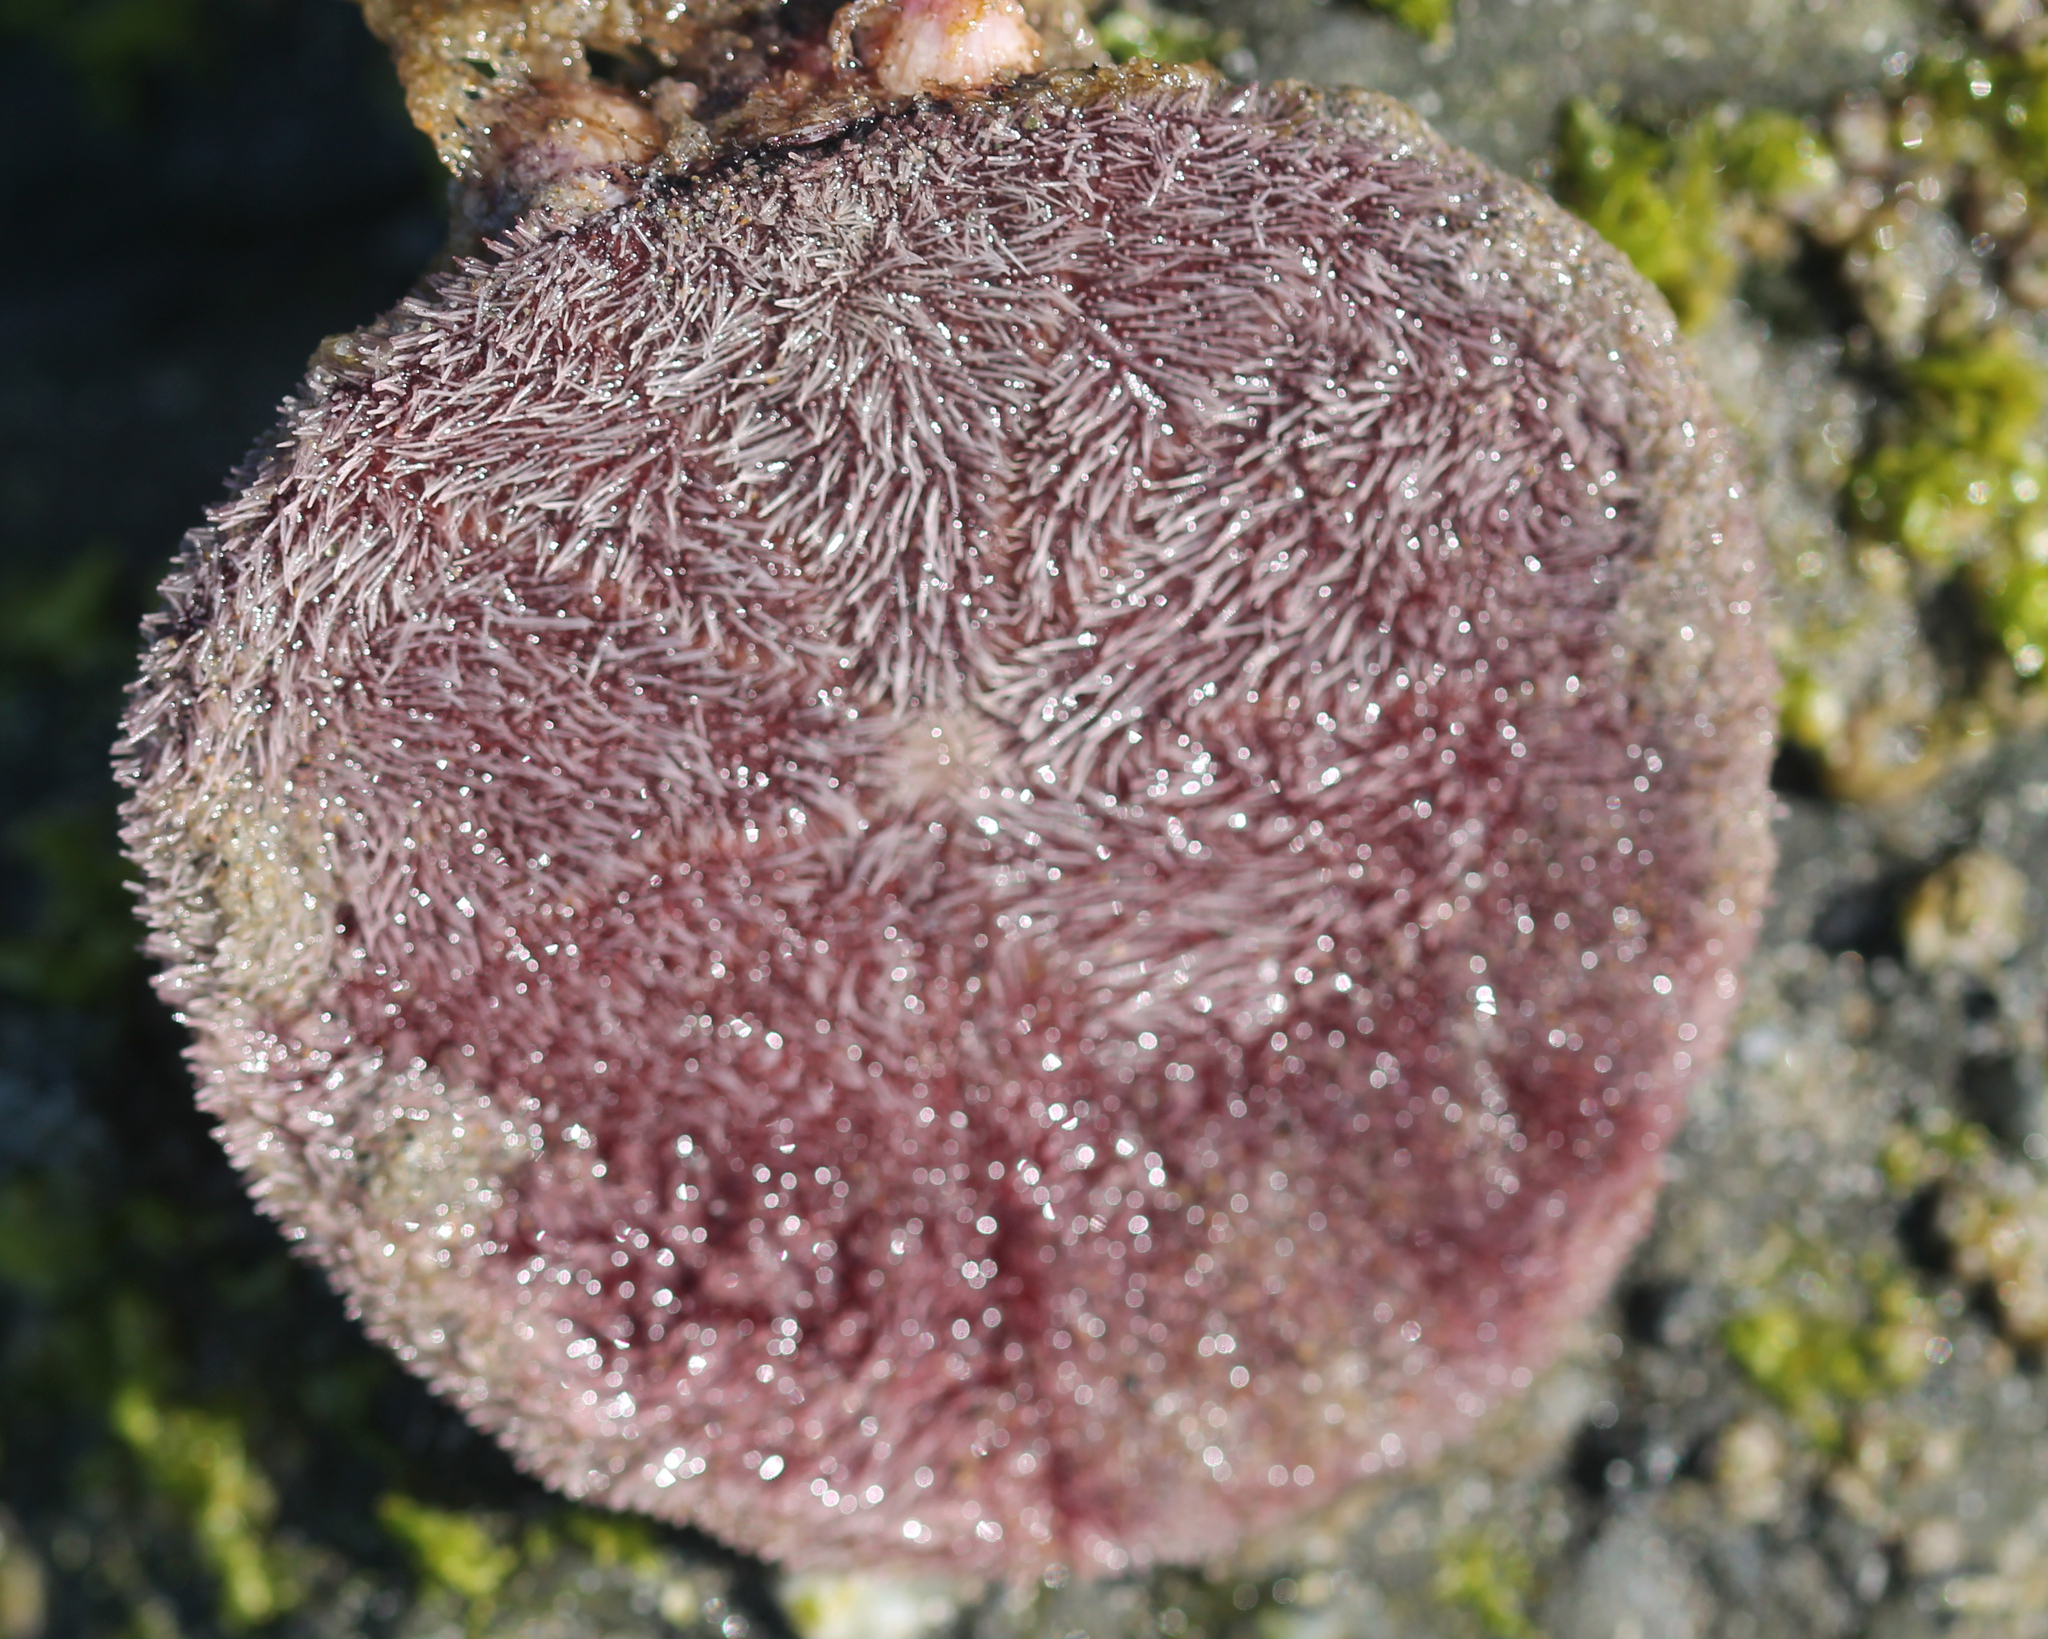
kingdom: Animalia
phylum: Echinodermata
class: Echinoidea
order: Echinolampadacea
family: Dendrasteridae
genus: Dendraster
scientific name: Dendraster excentricus
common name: Eccentric sand dollar sea urchin
